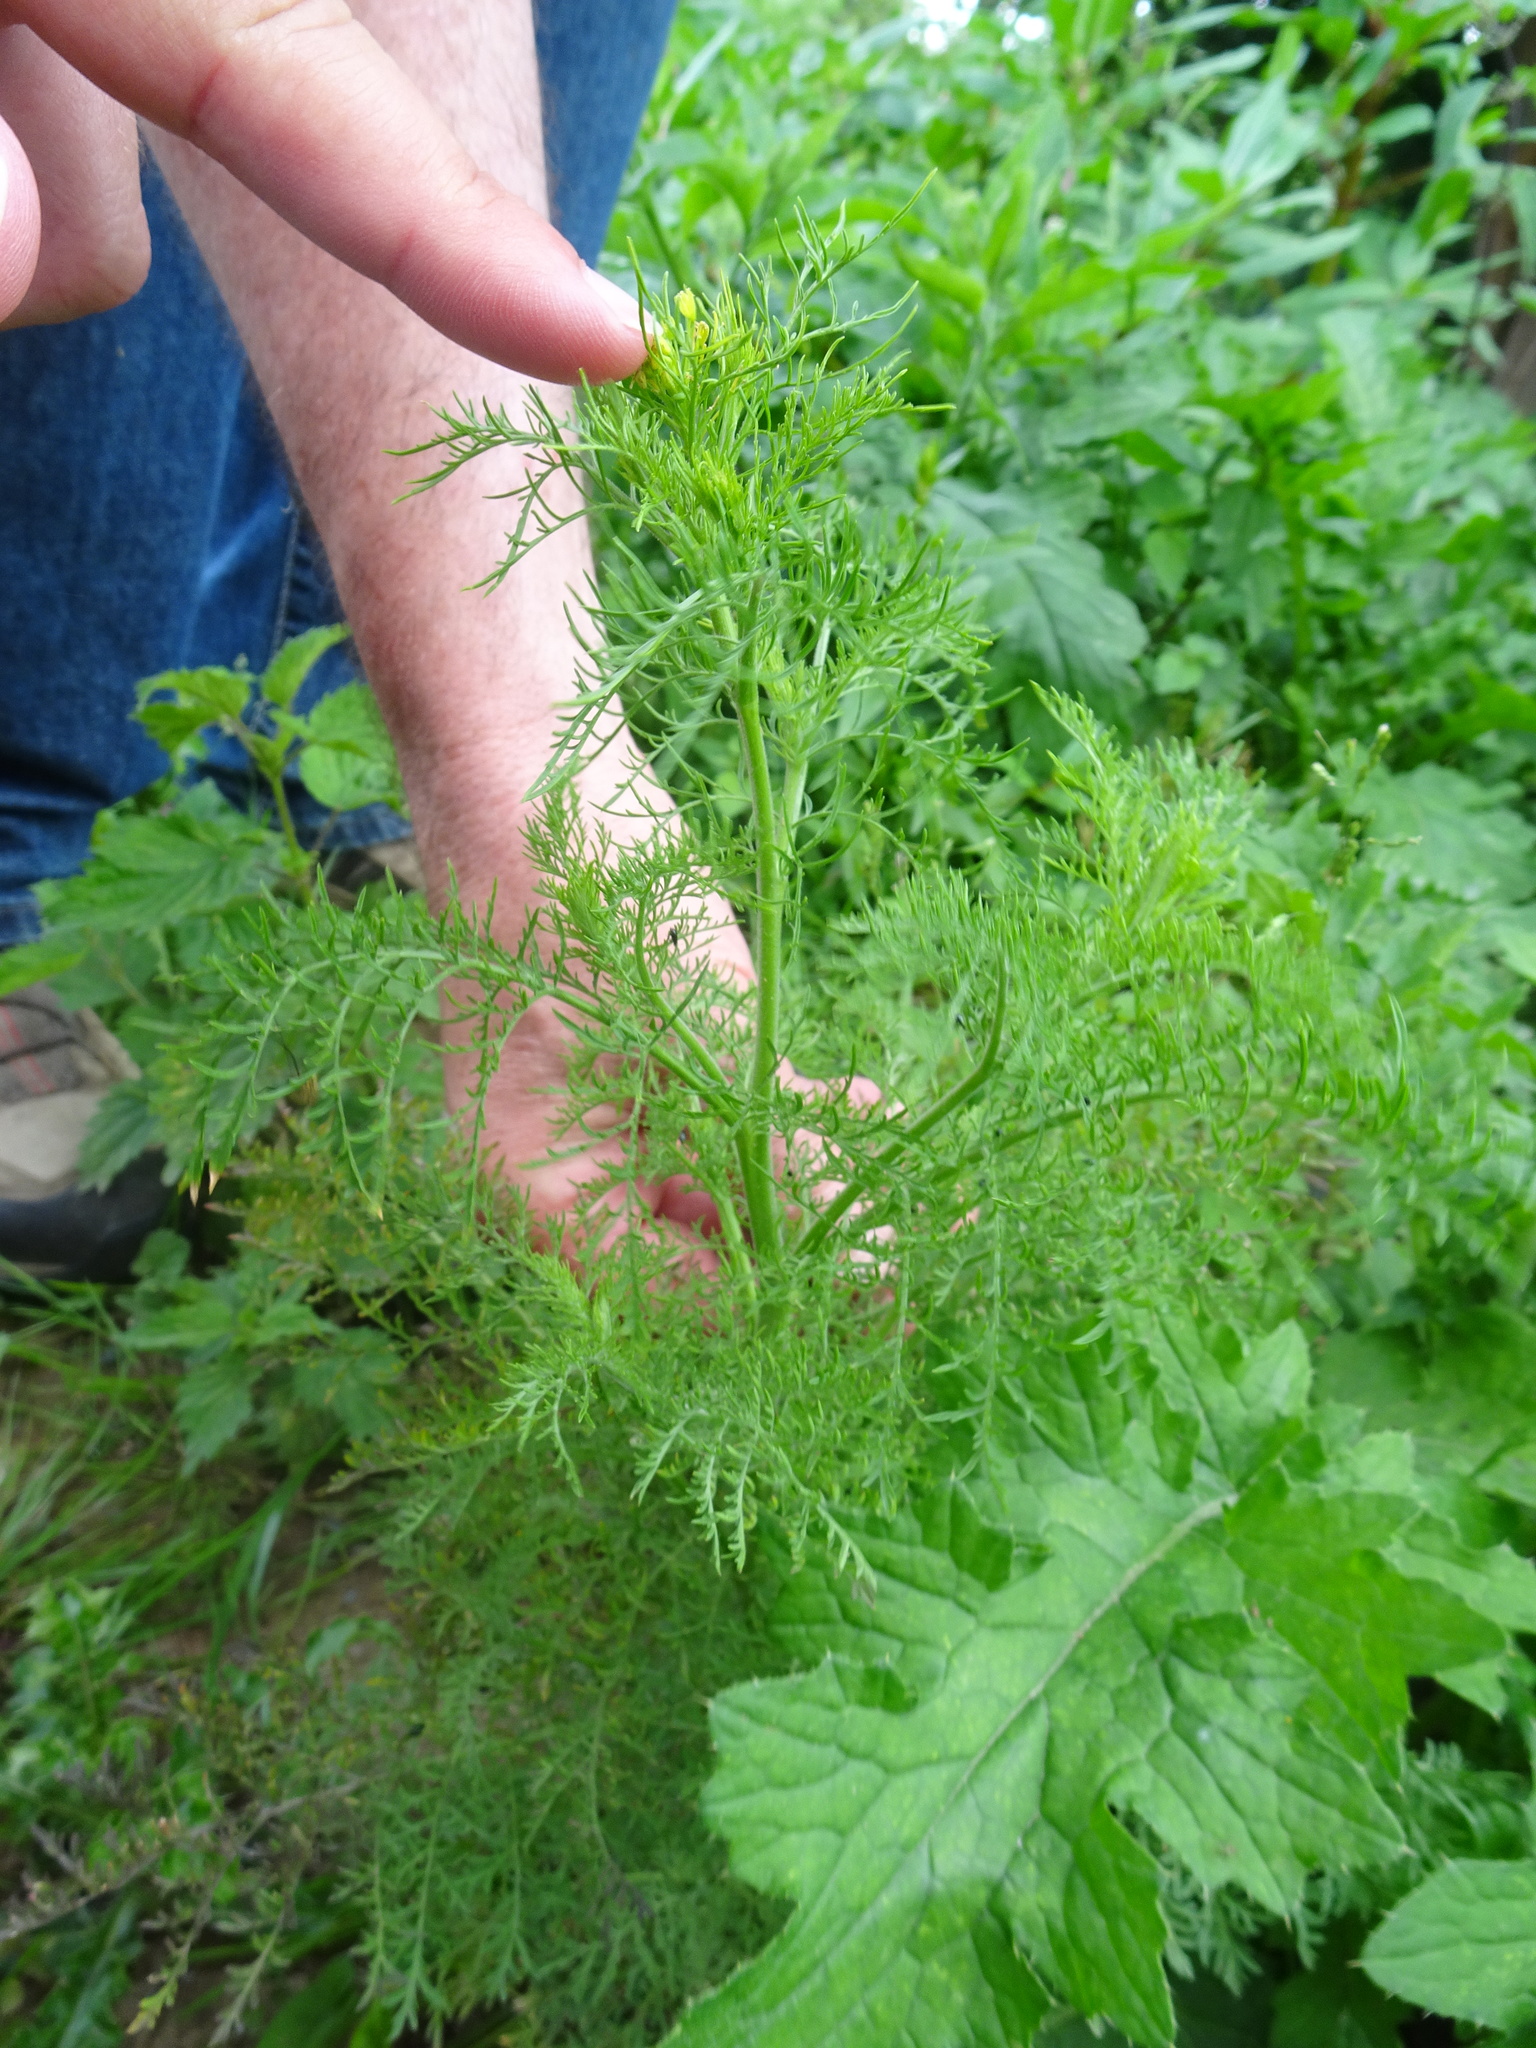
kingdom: Plantae
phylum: Tracheophyta
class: Magnoliopsida
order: Brassicales
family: Brassicaceae
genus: Descurainia
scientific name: Descurainia sophia
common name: Flixweed
